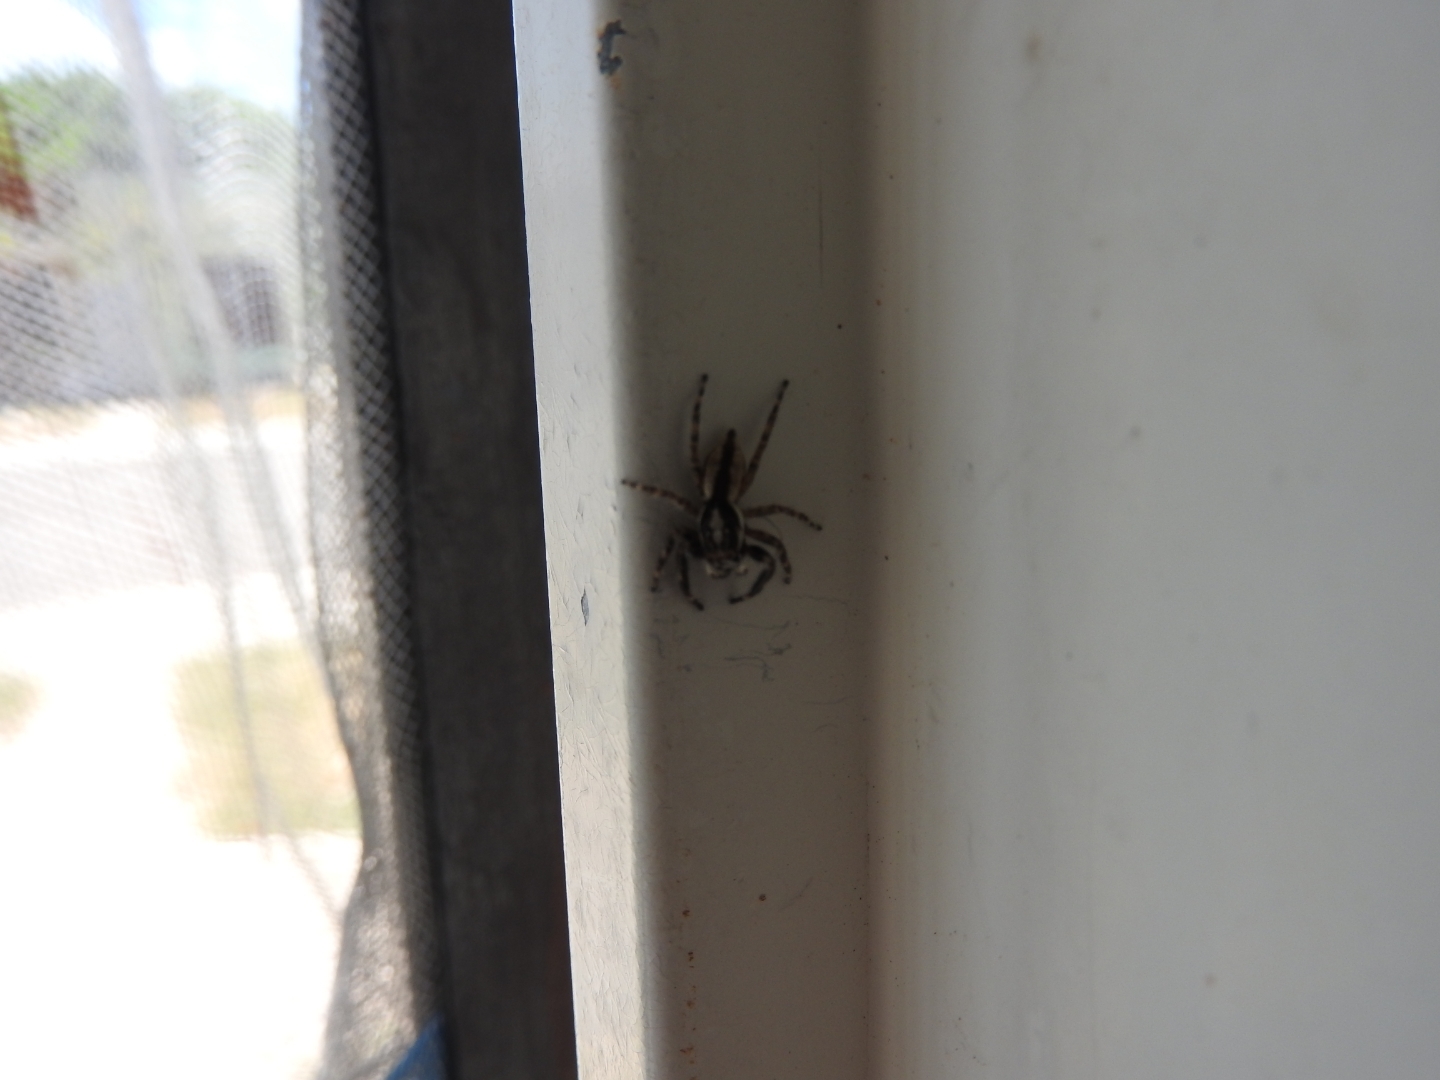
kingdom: Animalia
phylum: Arthropoda
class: Arachnida
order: Araneae
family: Salticidae
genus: Menemerus
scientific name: Menemerus bivittatus
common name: Gray wall jumper
